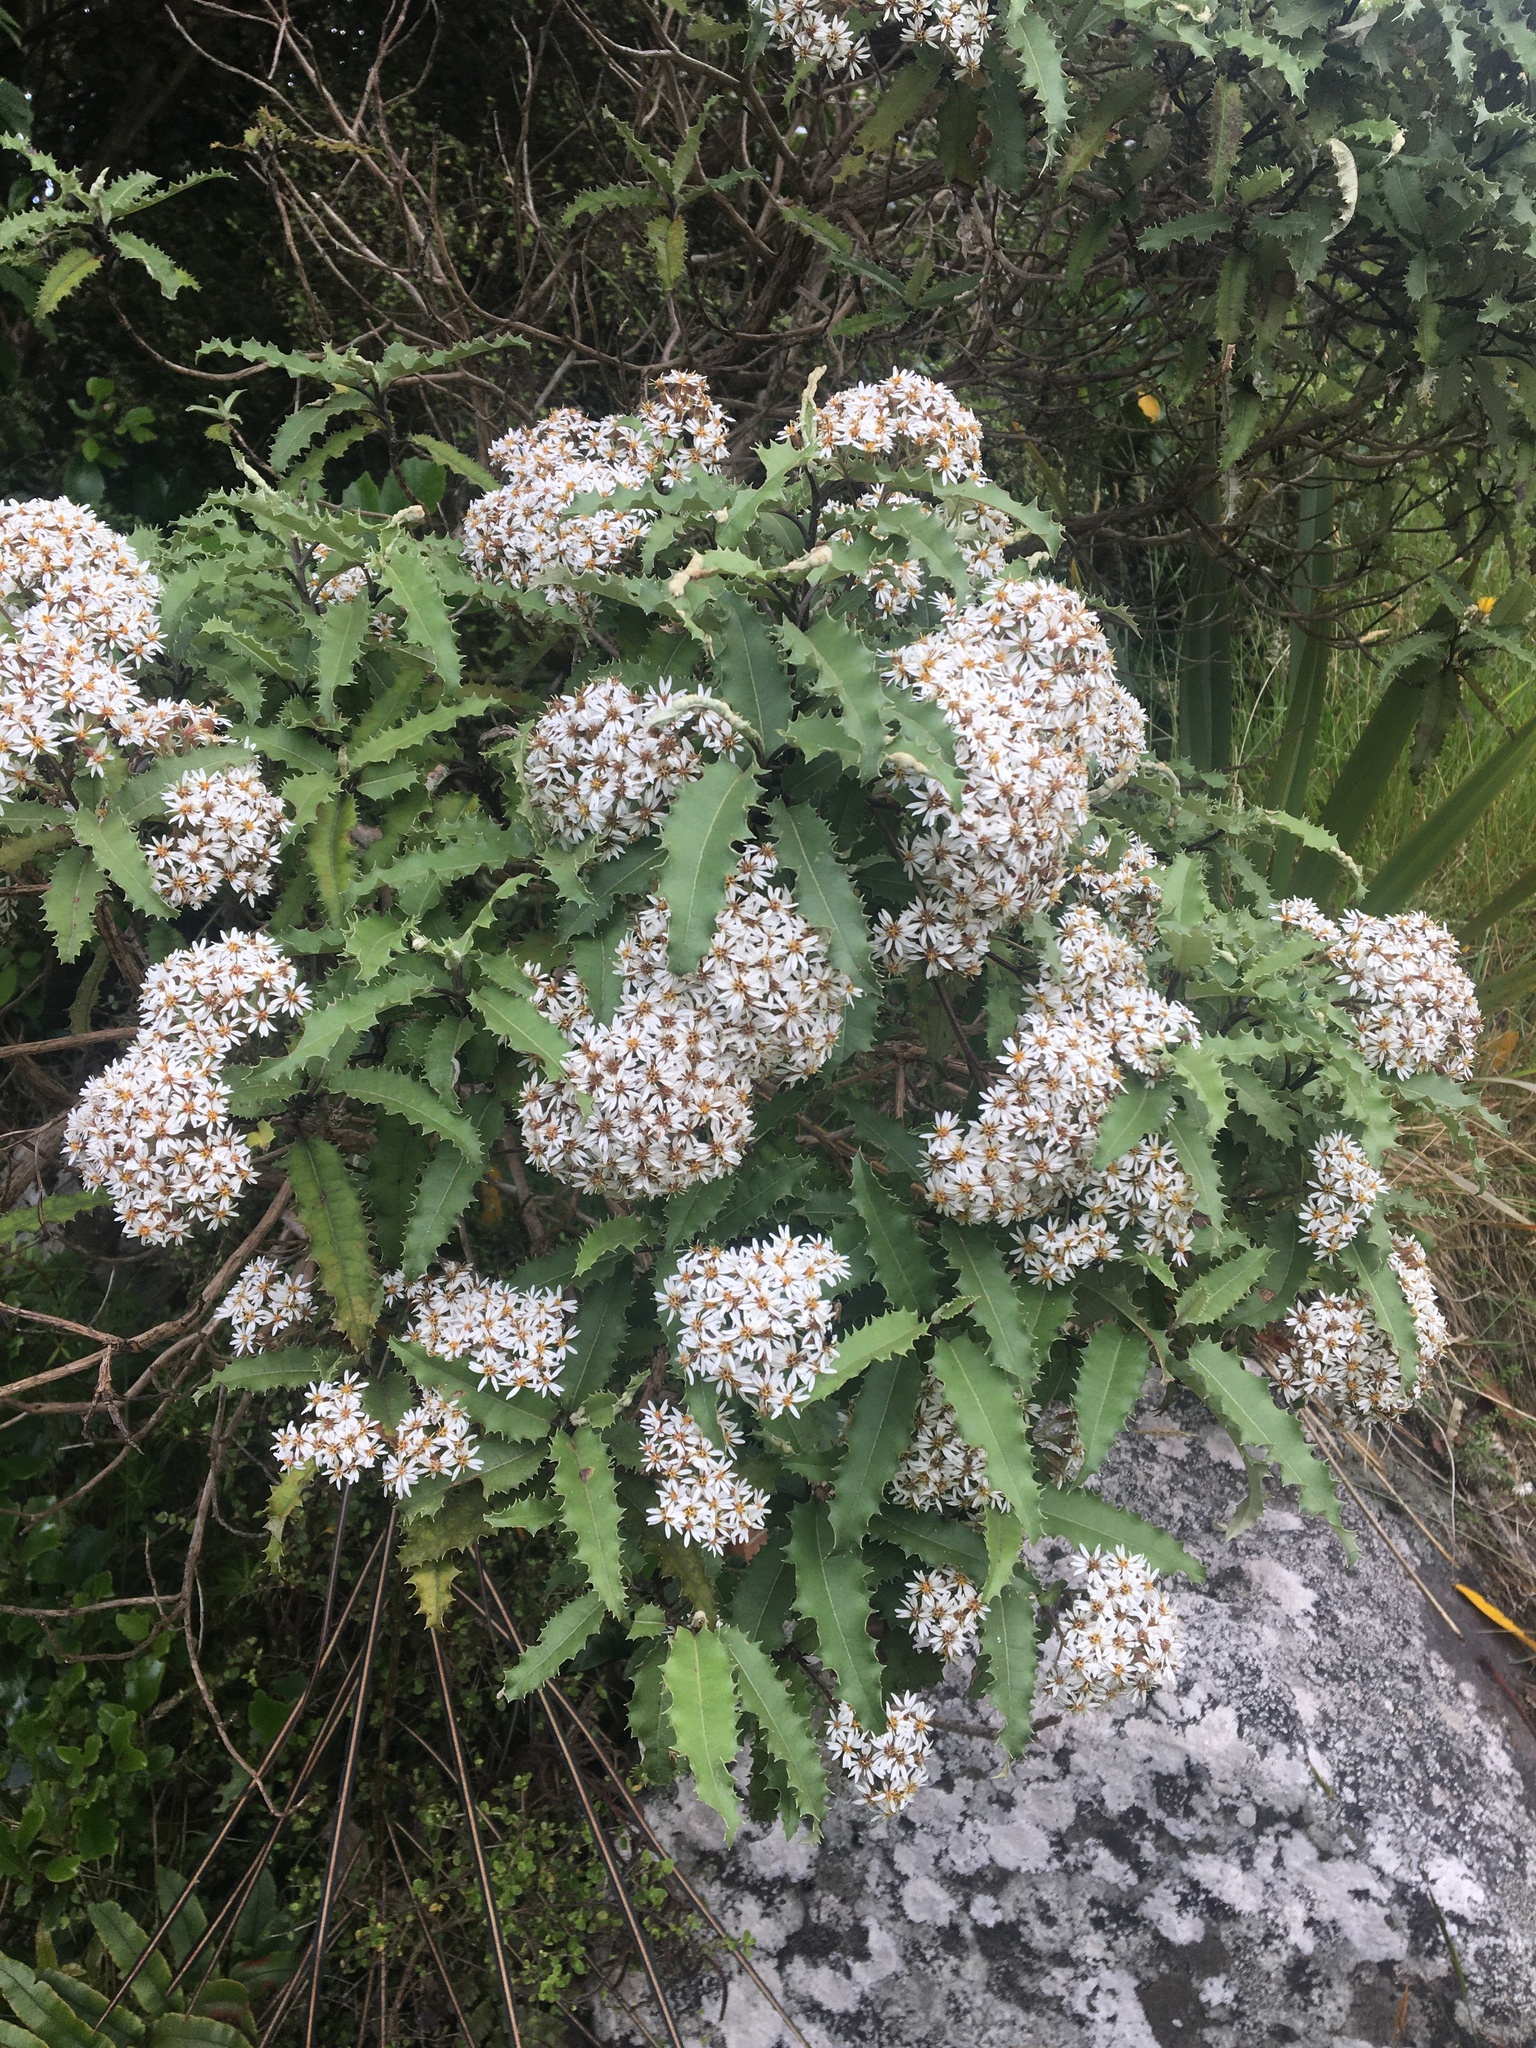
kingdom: Plantae
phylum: Tracheophyta
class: Magnoliopsida
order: Asterales
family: Asteraceae
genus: Olearia
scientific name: Olearia ilicifolia
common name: Maori-holly
